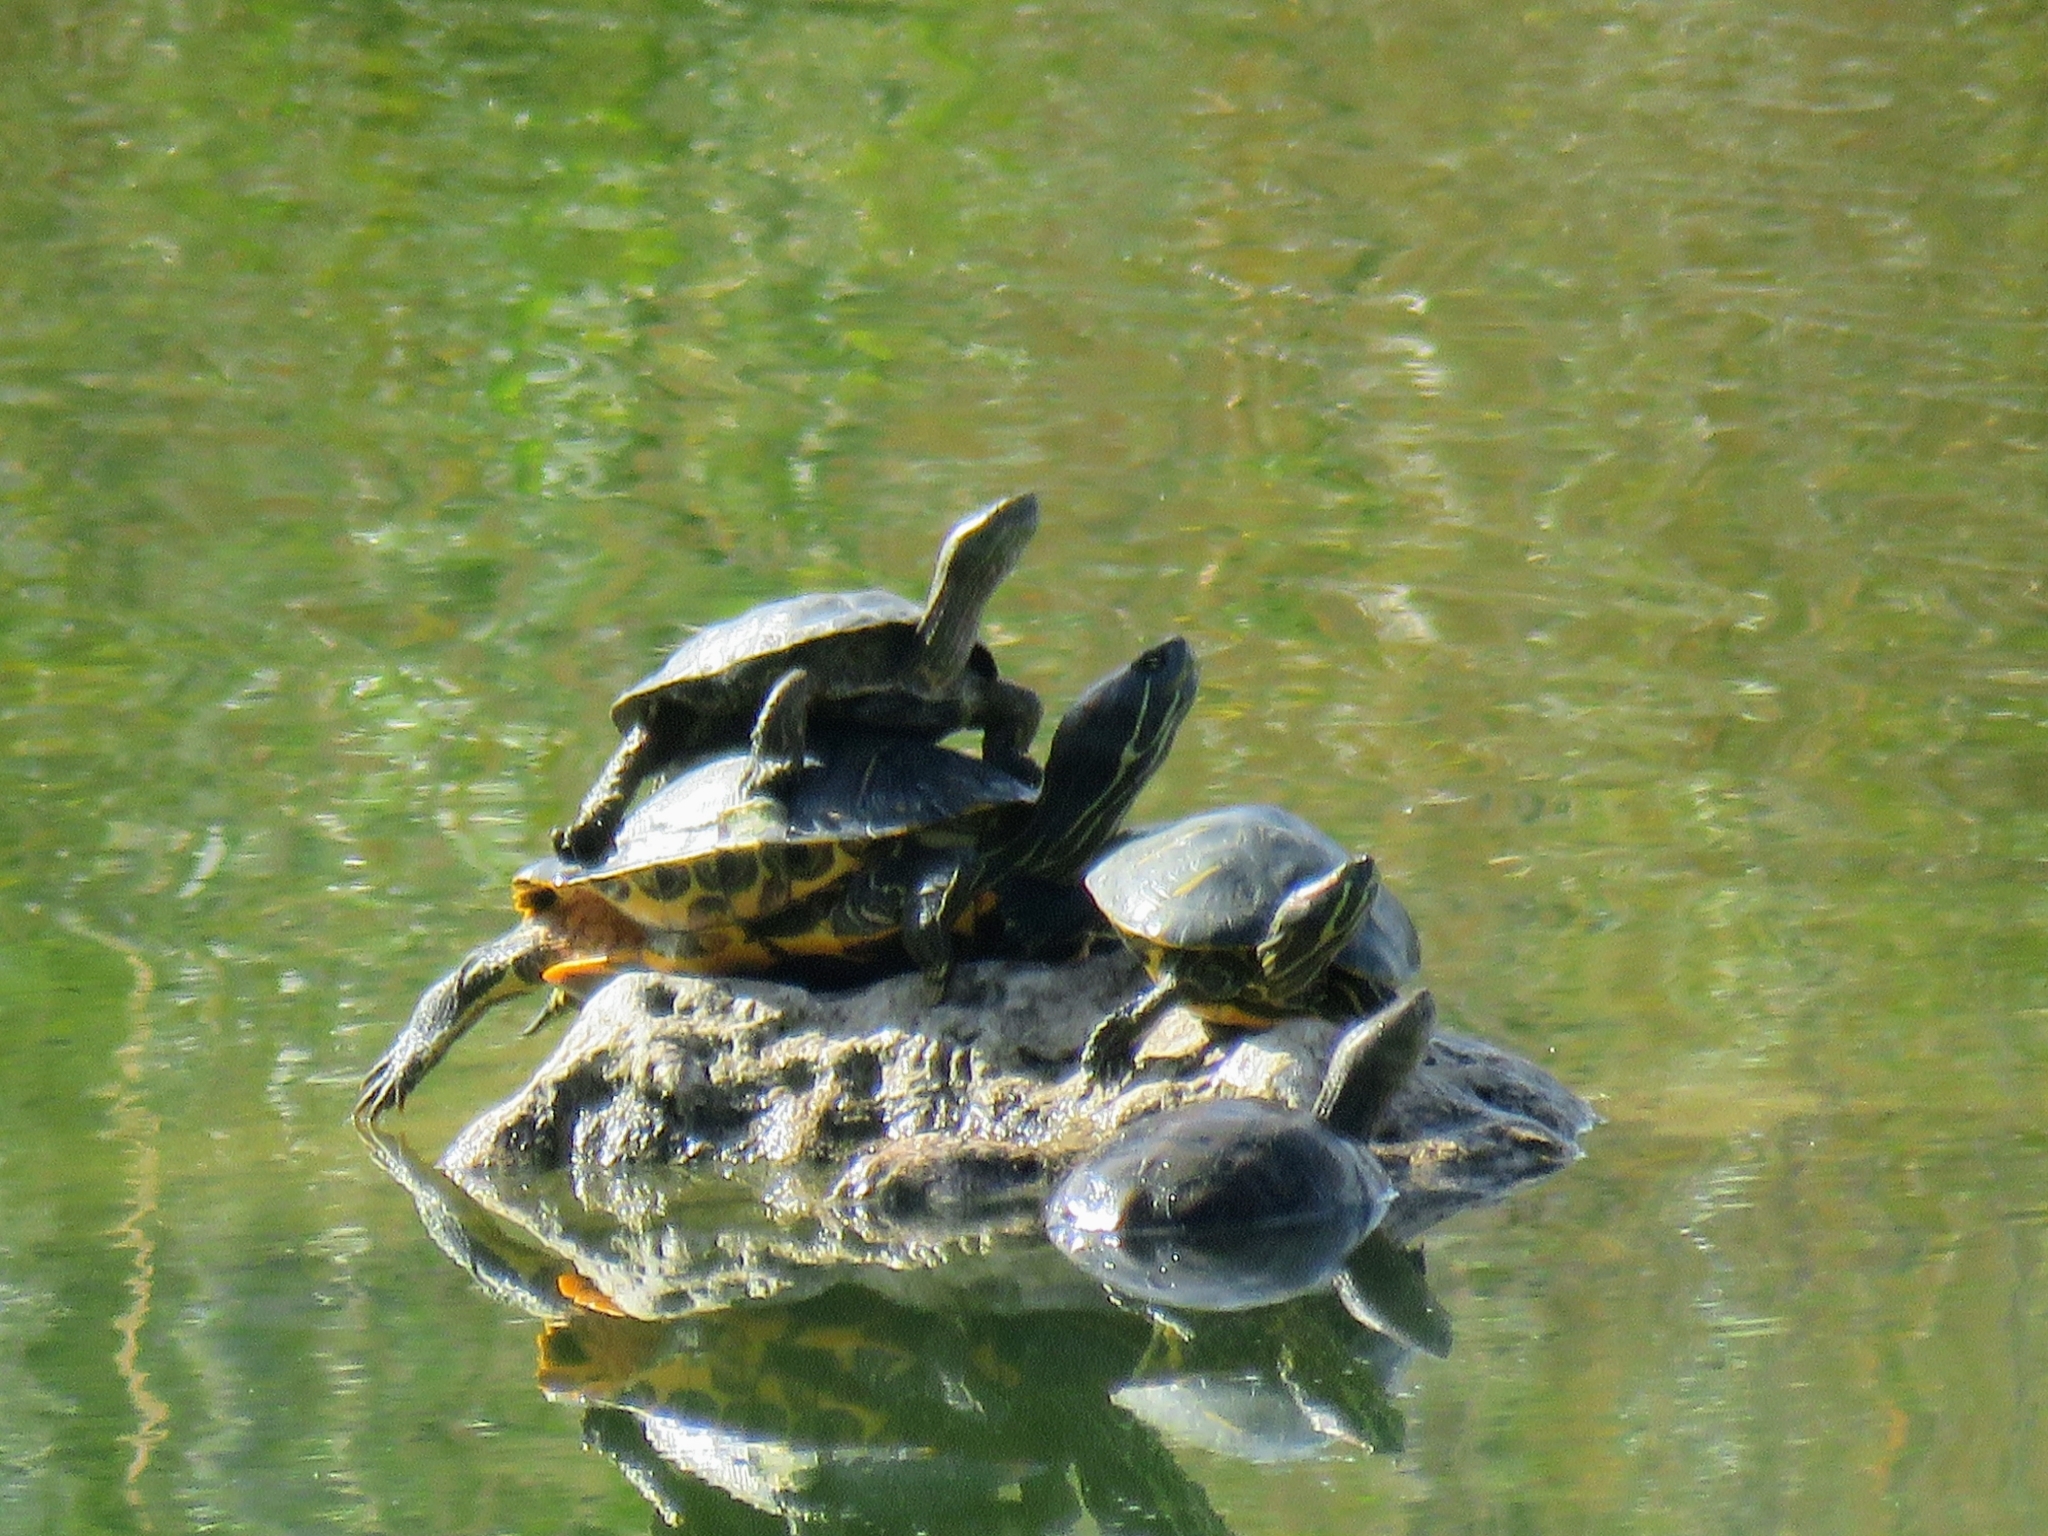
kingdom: Animalia
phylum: Chordata
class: Testudines
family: Emydidae
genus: Trachemys
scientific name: Trachemys scripta
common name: Slider
